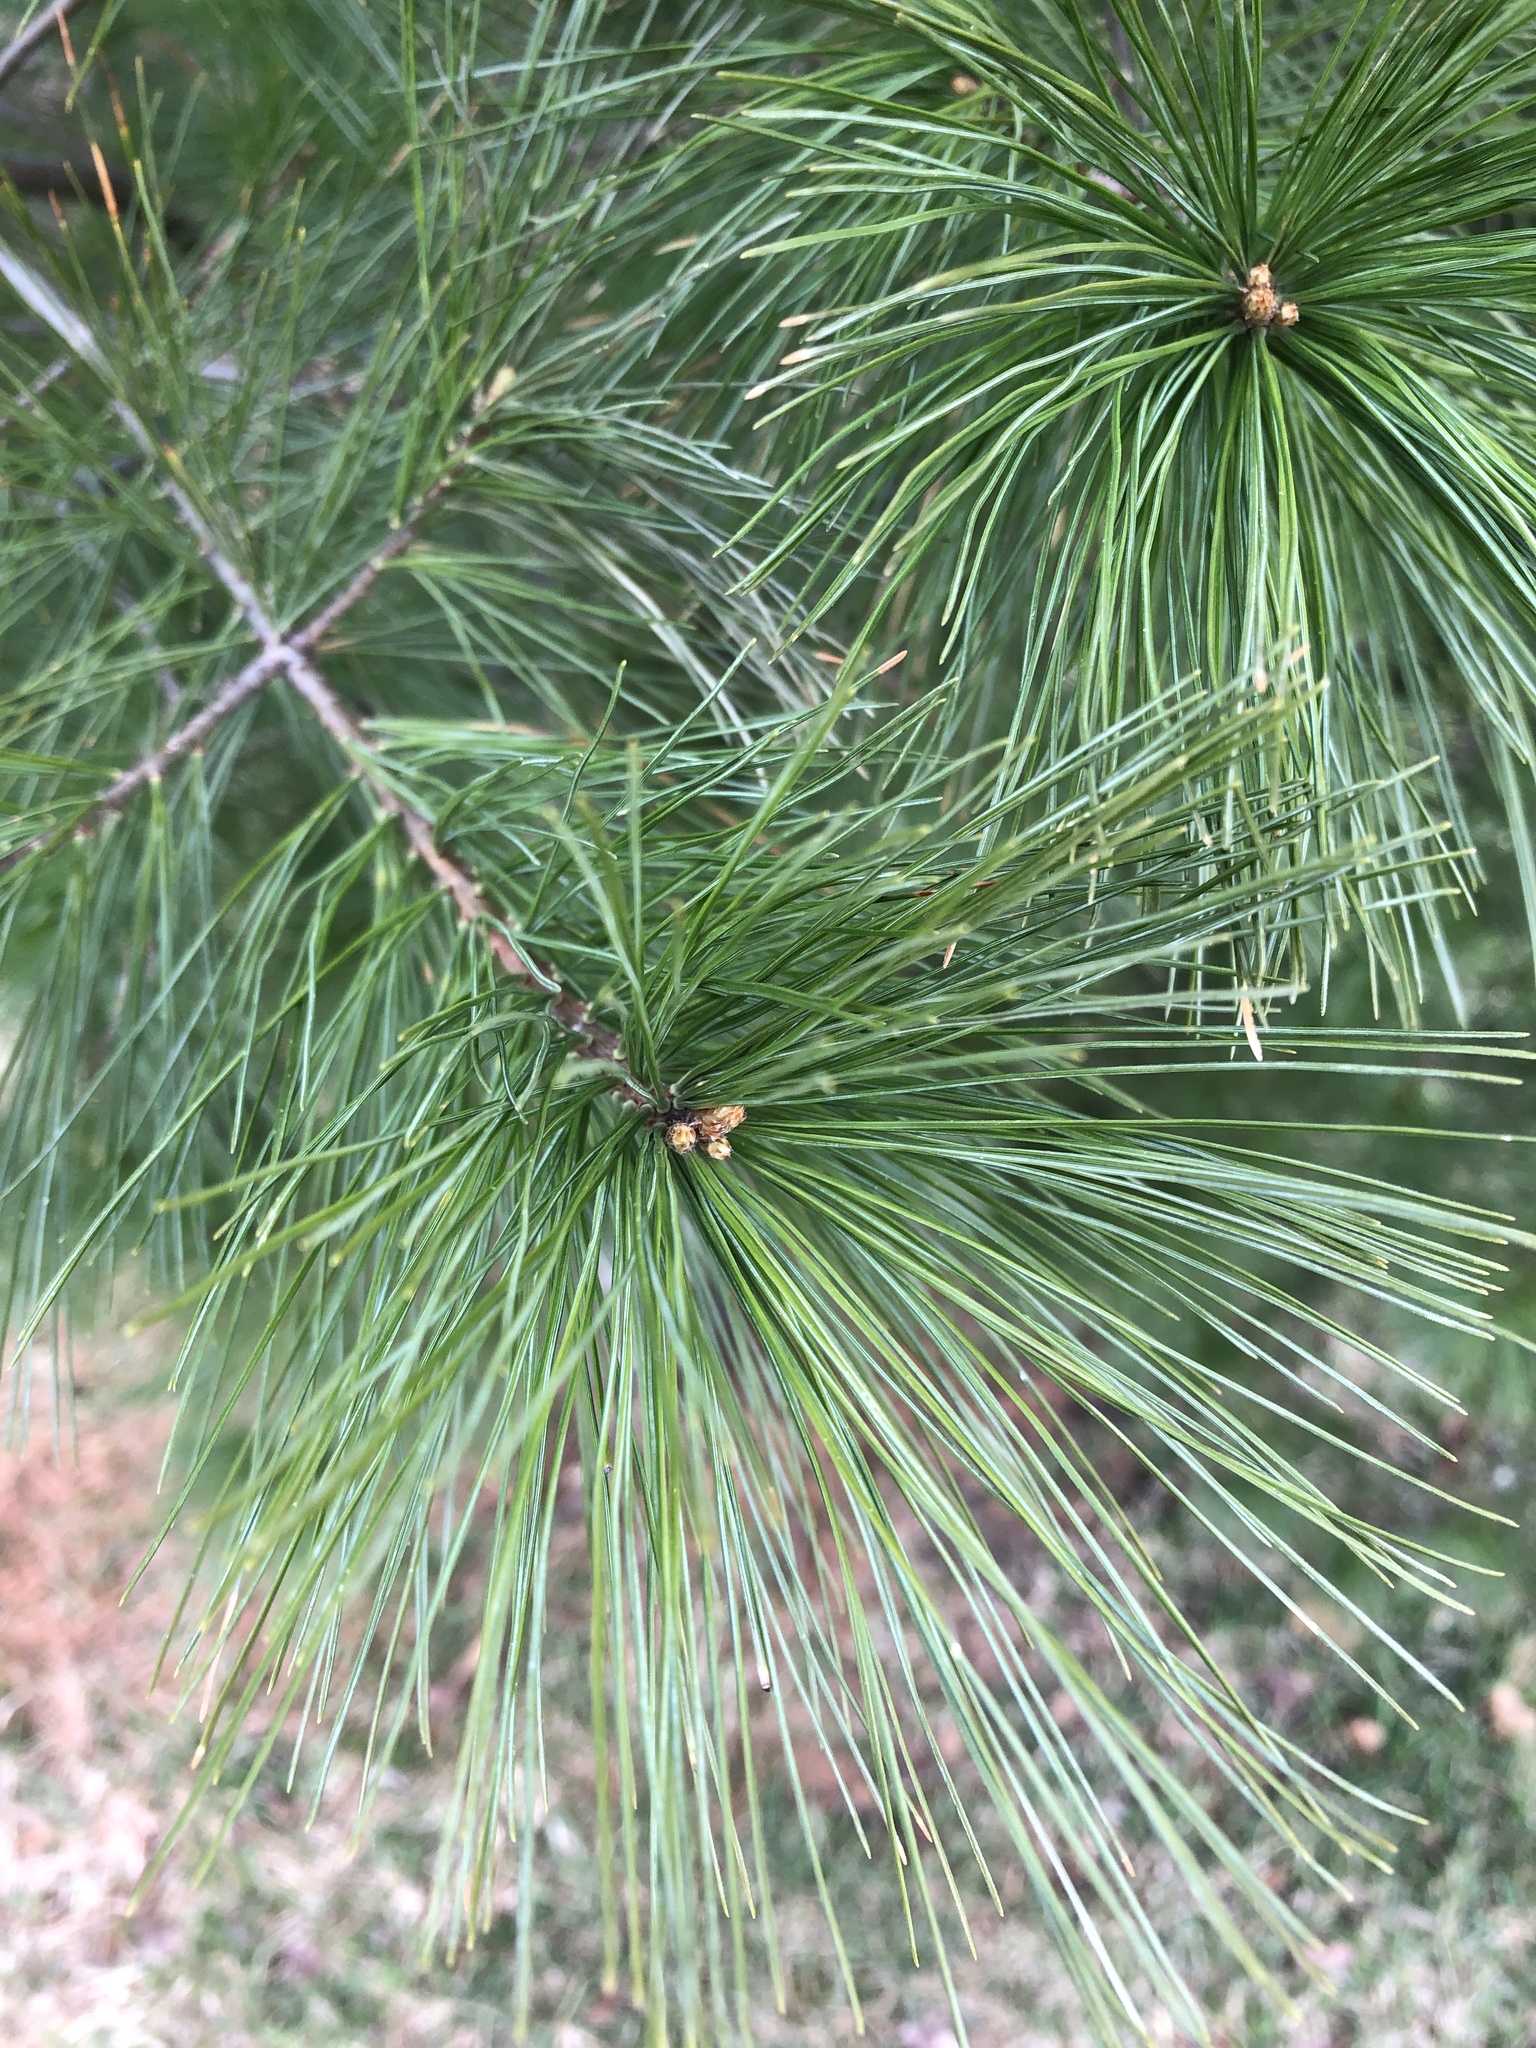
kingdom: Plantae
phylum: Tracheophyta
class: Pinopsida
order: Pinales
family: Pinaceae
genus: Pinus
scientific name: Pinus strobus
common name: Weymouth pine
